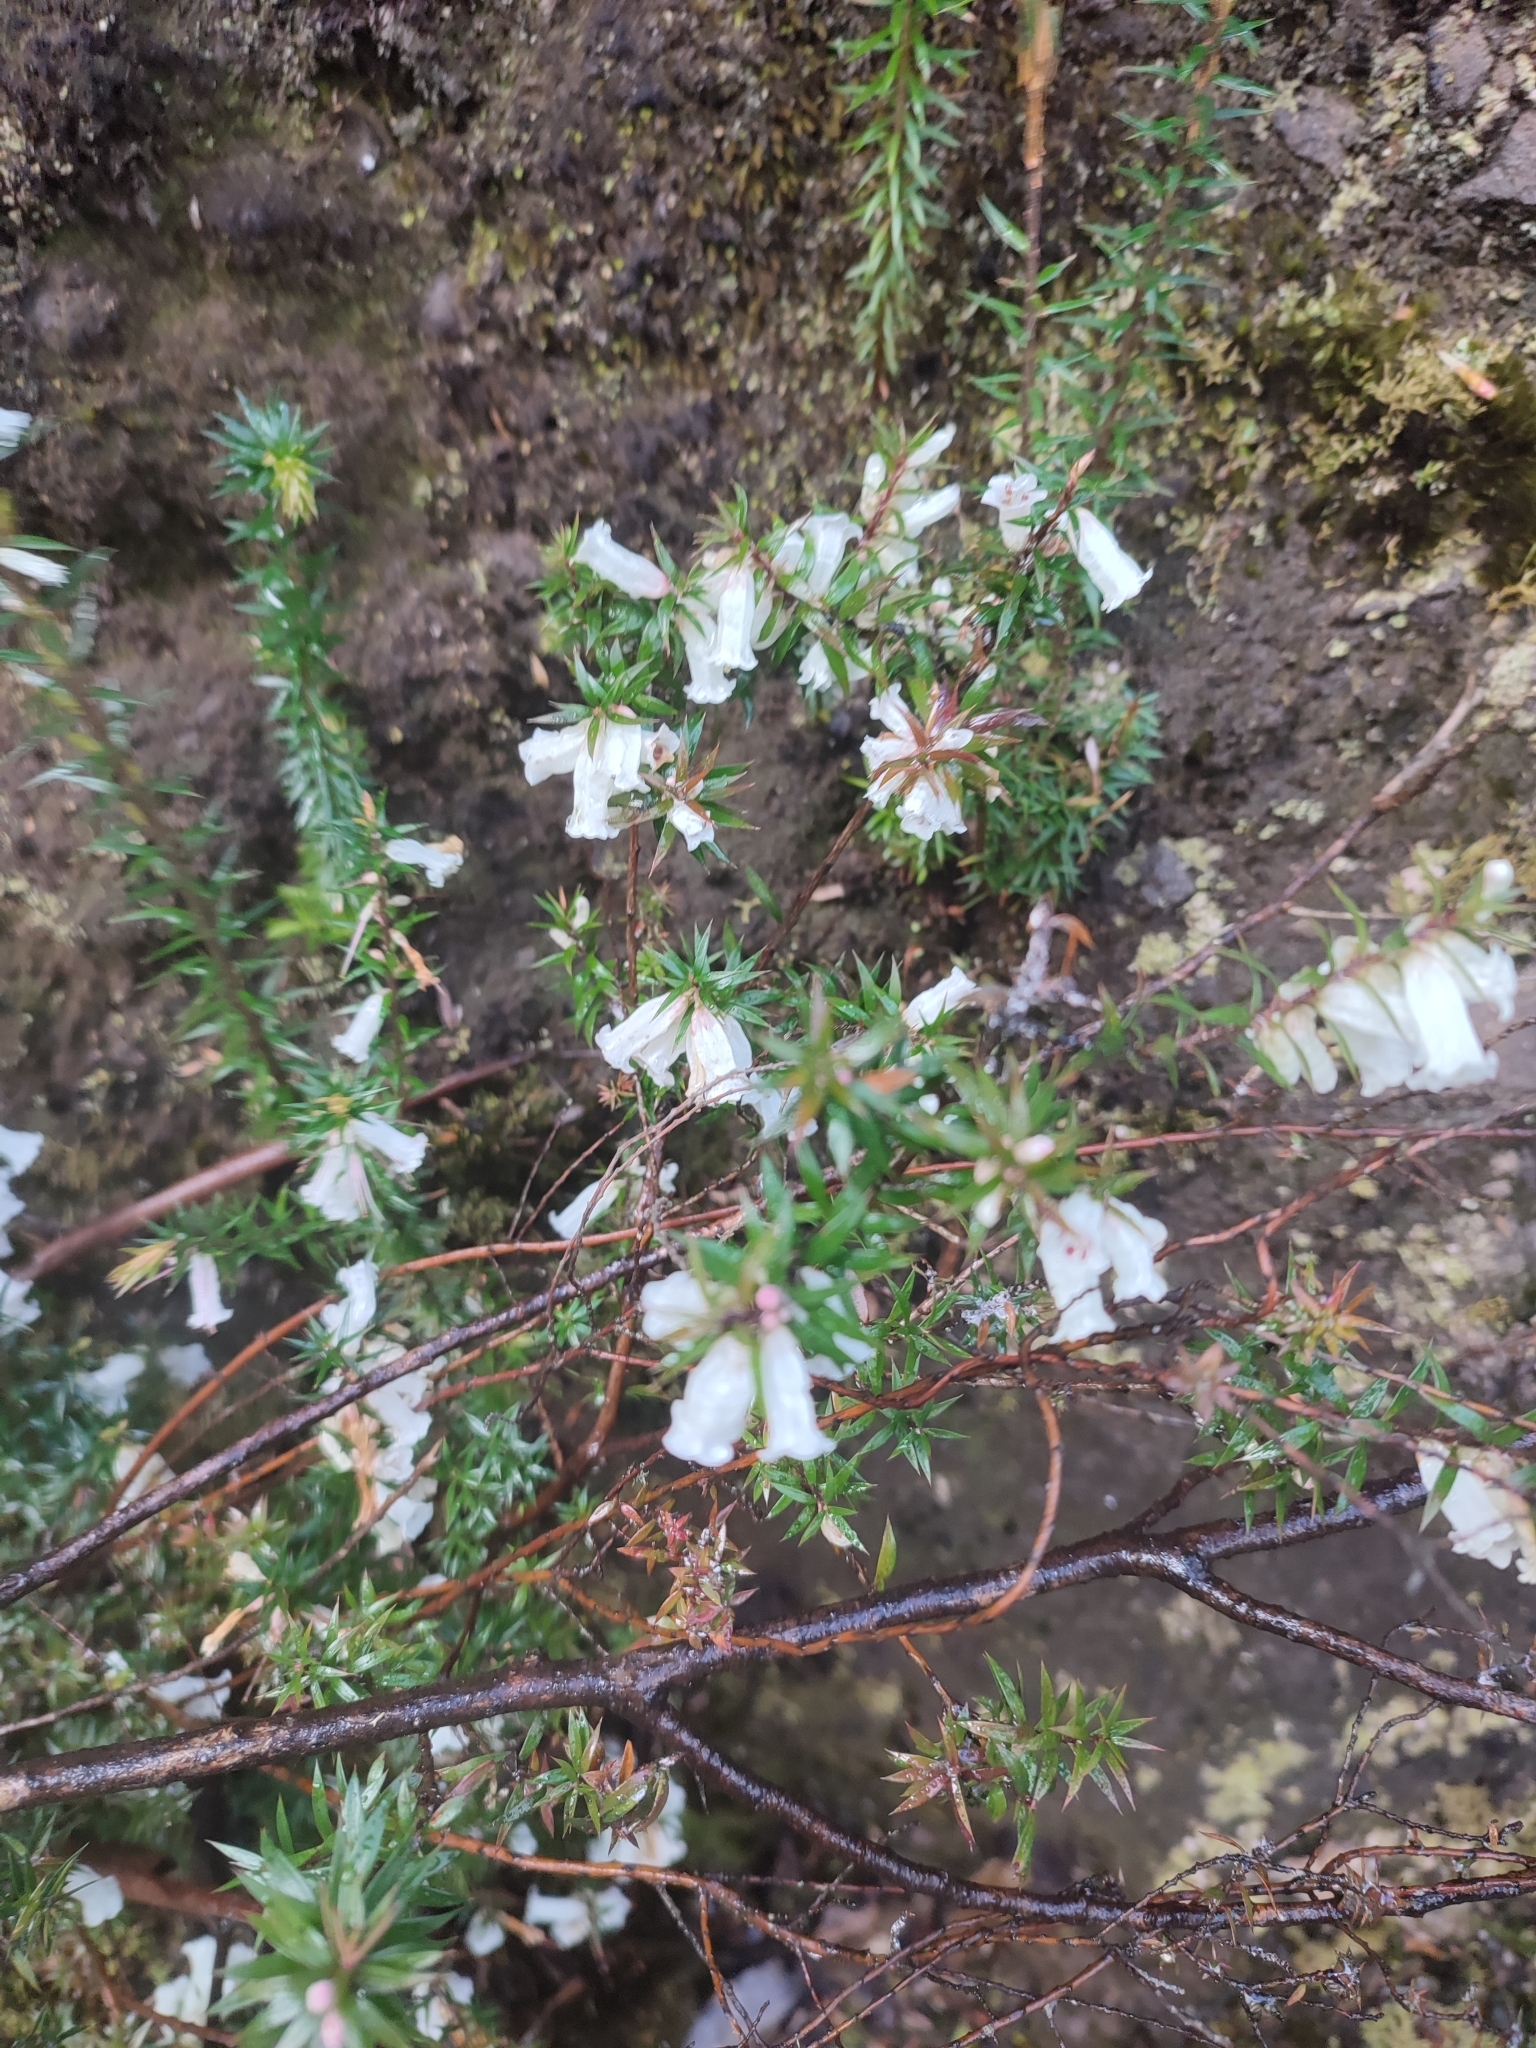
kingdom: Plantae
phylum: Tracheophyta
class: Magnoliopsida
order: Ericales
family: Ericaceae
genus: Epacris
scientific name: Epacris impressa
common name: Common-heath
